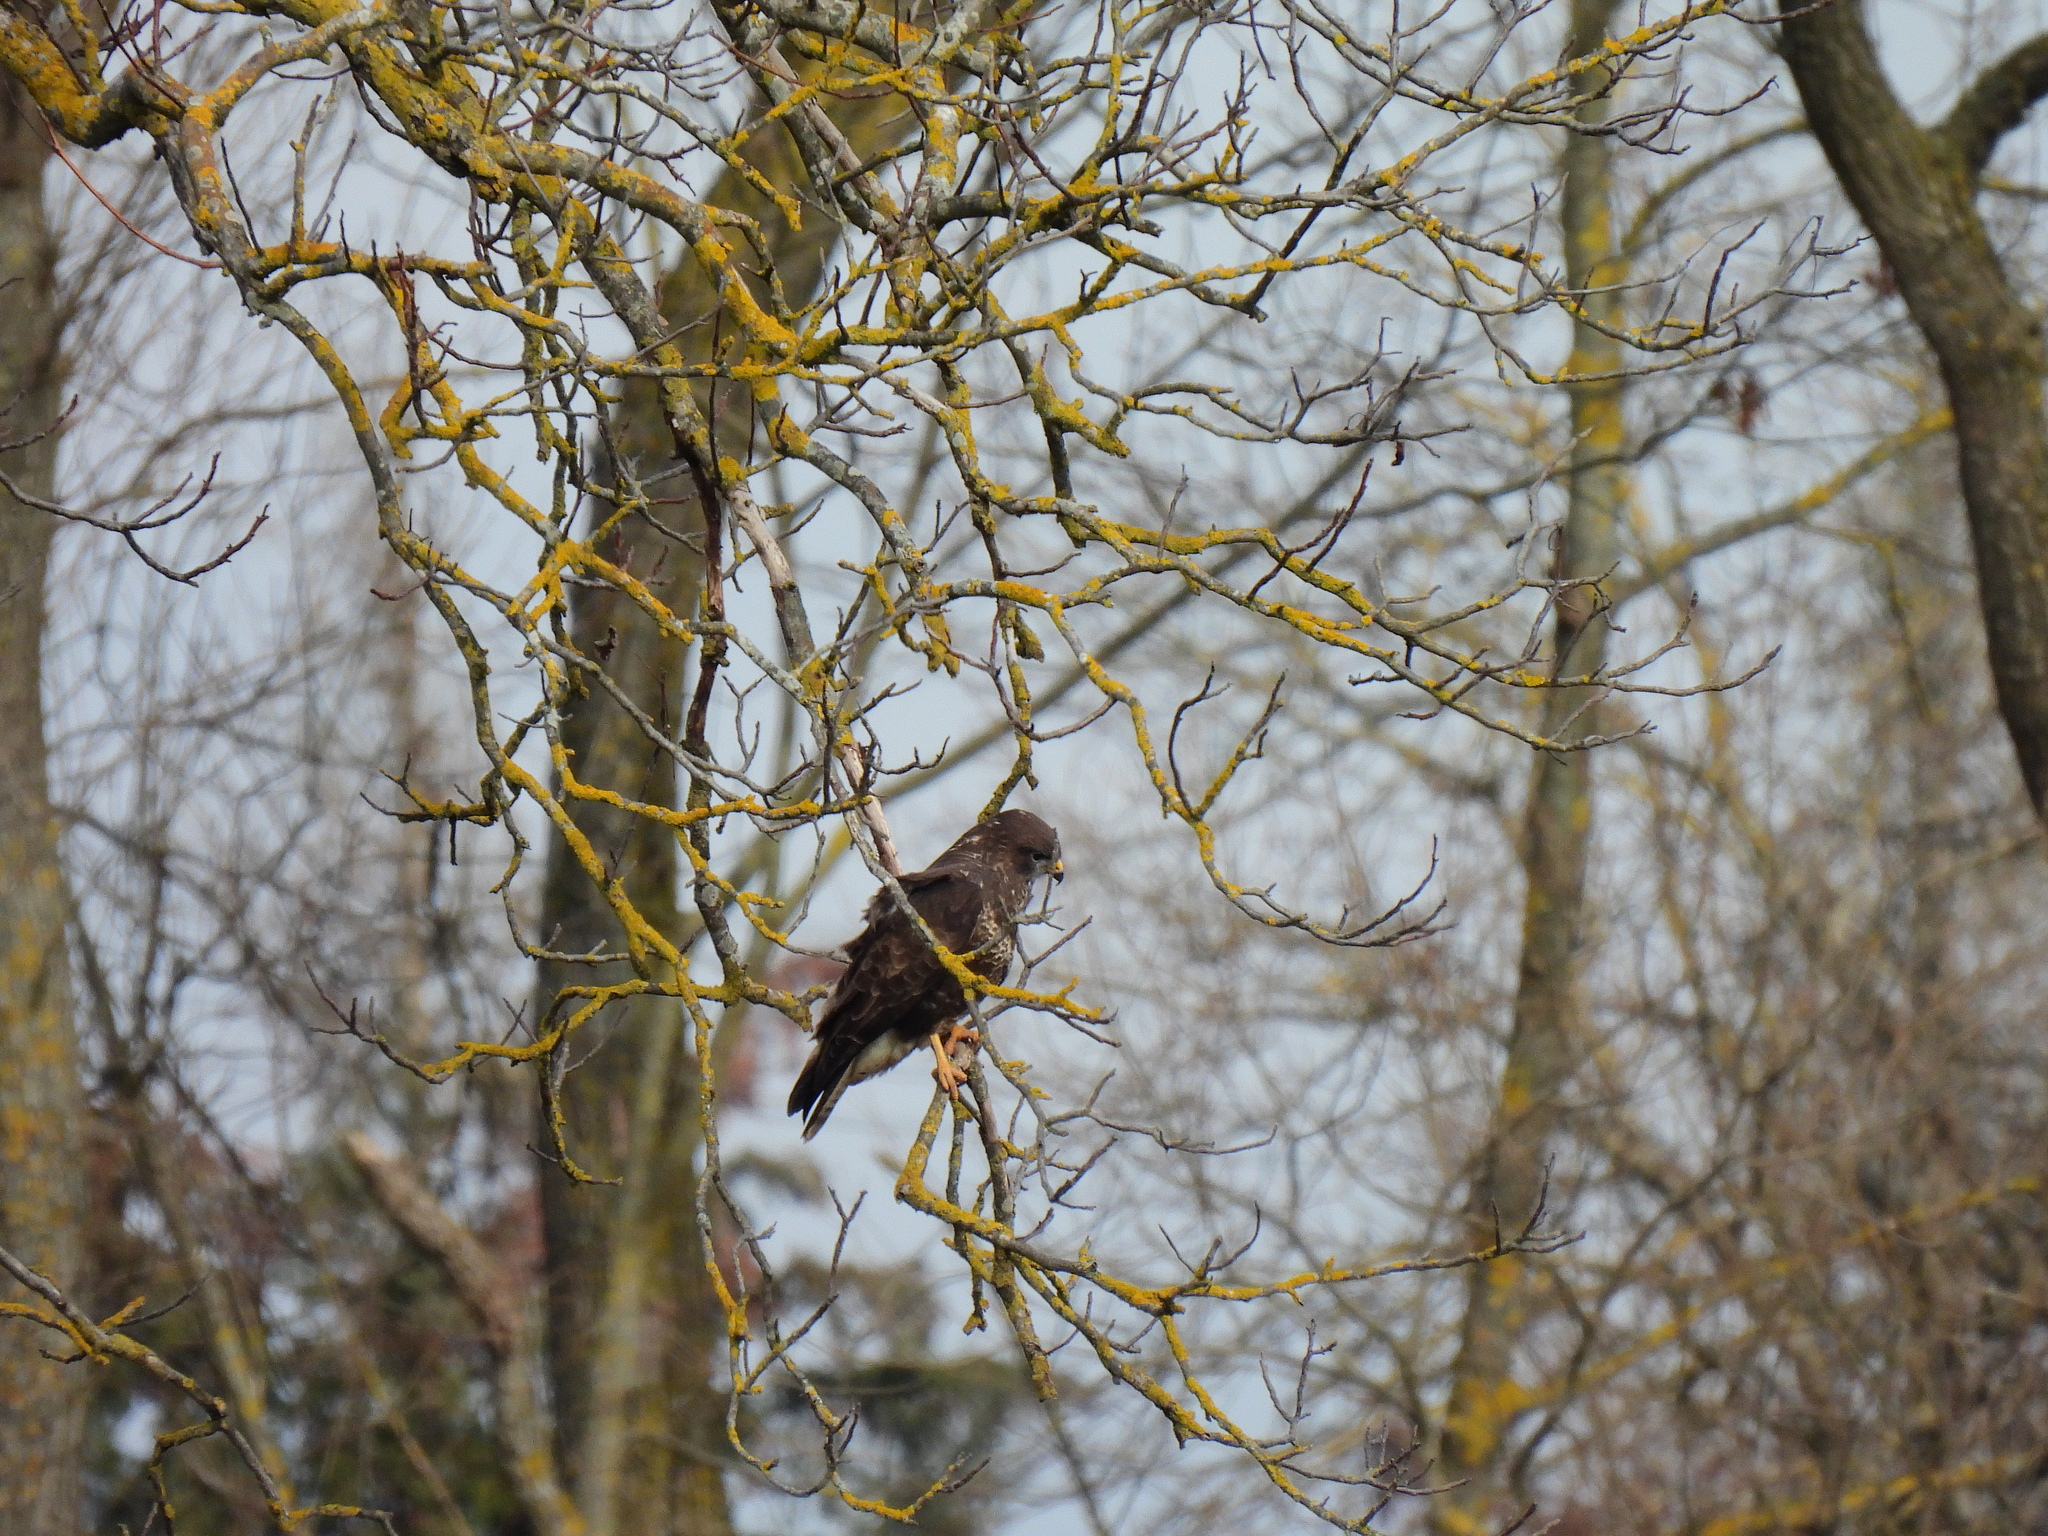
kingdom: Animalia
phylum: Chordata
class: Aves
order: Accipitriformes
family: Accipitridae
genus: Buteo
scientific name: Buteo buteo
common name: Common buzzard
